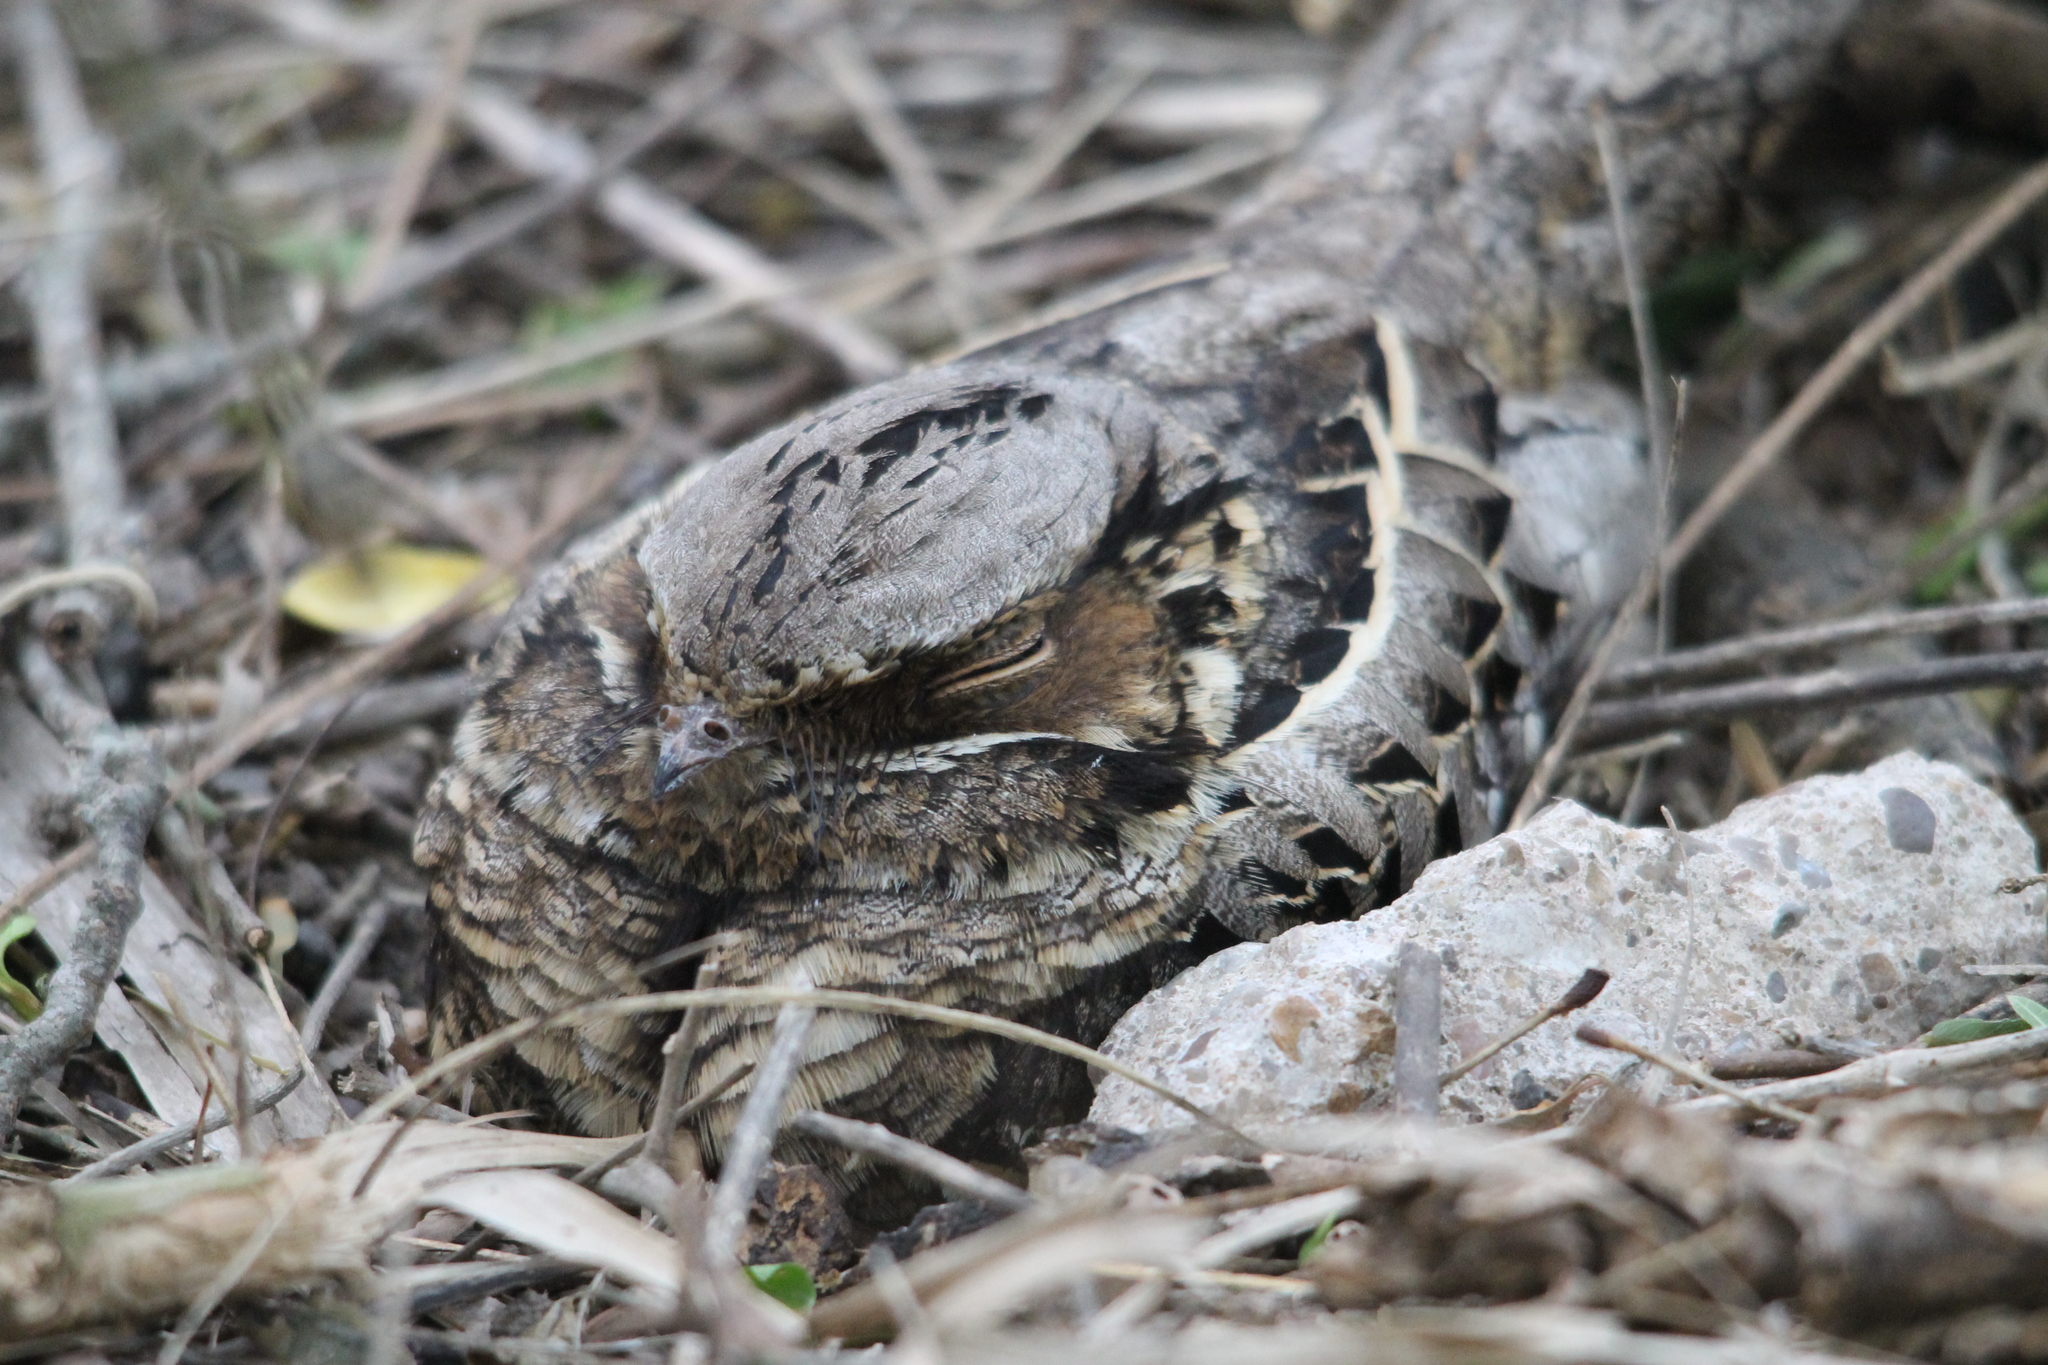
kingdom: Animalia
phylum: Chordata
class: Aves
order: Caprimulgiformes
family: Caprimulgidae
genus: Nyctidromus
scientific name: Nyctidromus albicollis
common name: Pauraque
